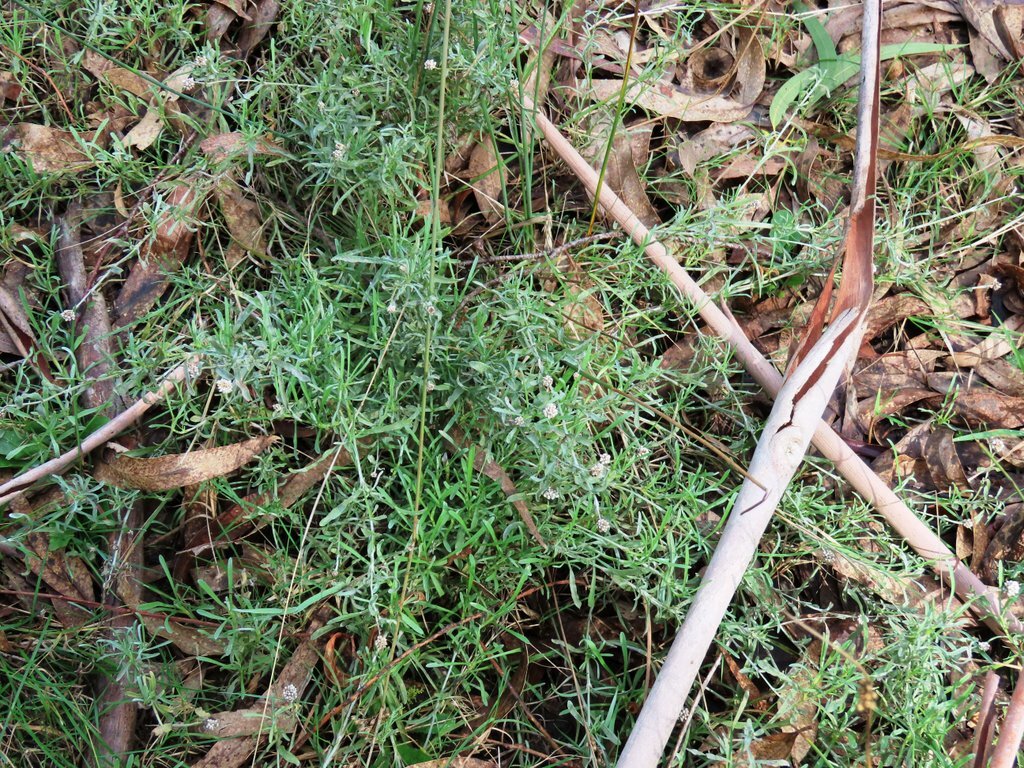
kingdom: Plantae
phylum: Tracheophyta
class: Magnoliopsida
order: Asterales
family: Asteraceae
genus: Calocephalus
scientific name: Calocephalus lacteus
